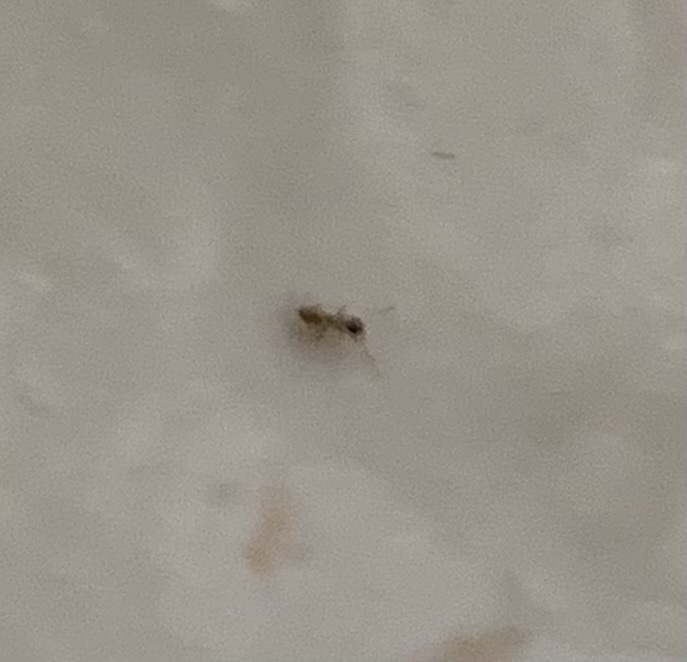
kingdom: Animalia
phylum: Arthropoda
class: Insecta
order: Hymenoptera
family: Formicidae
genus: Tapinoma
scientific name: Tapinoma melanocephalum
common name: Ghost ant
